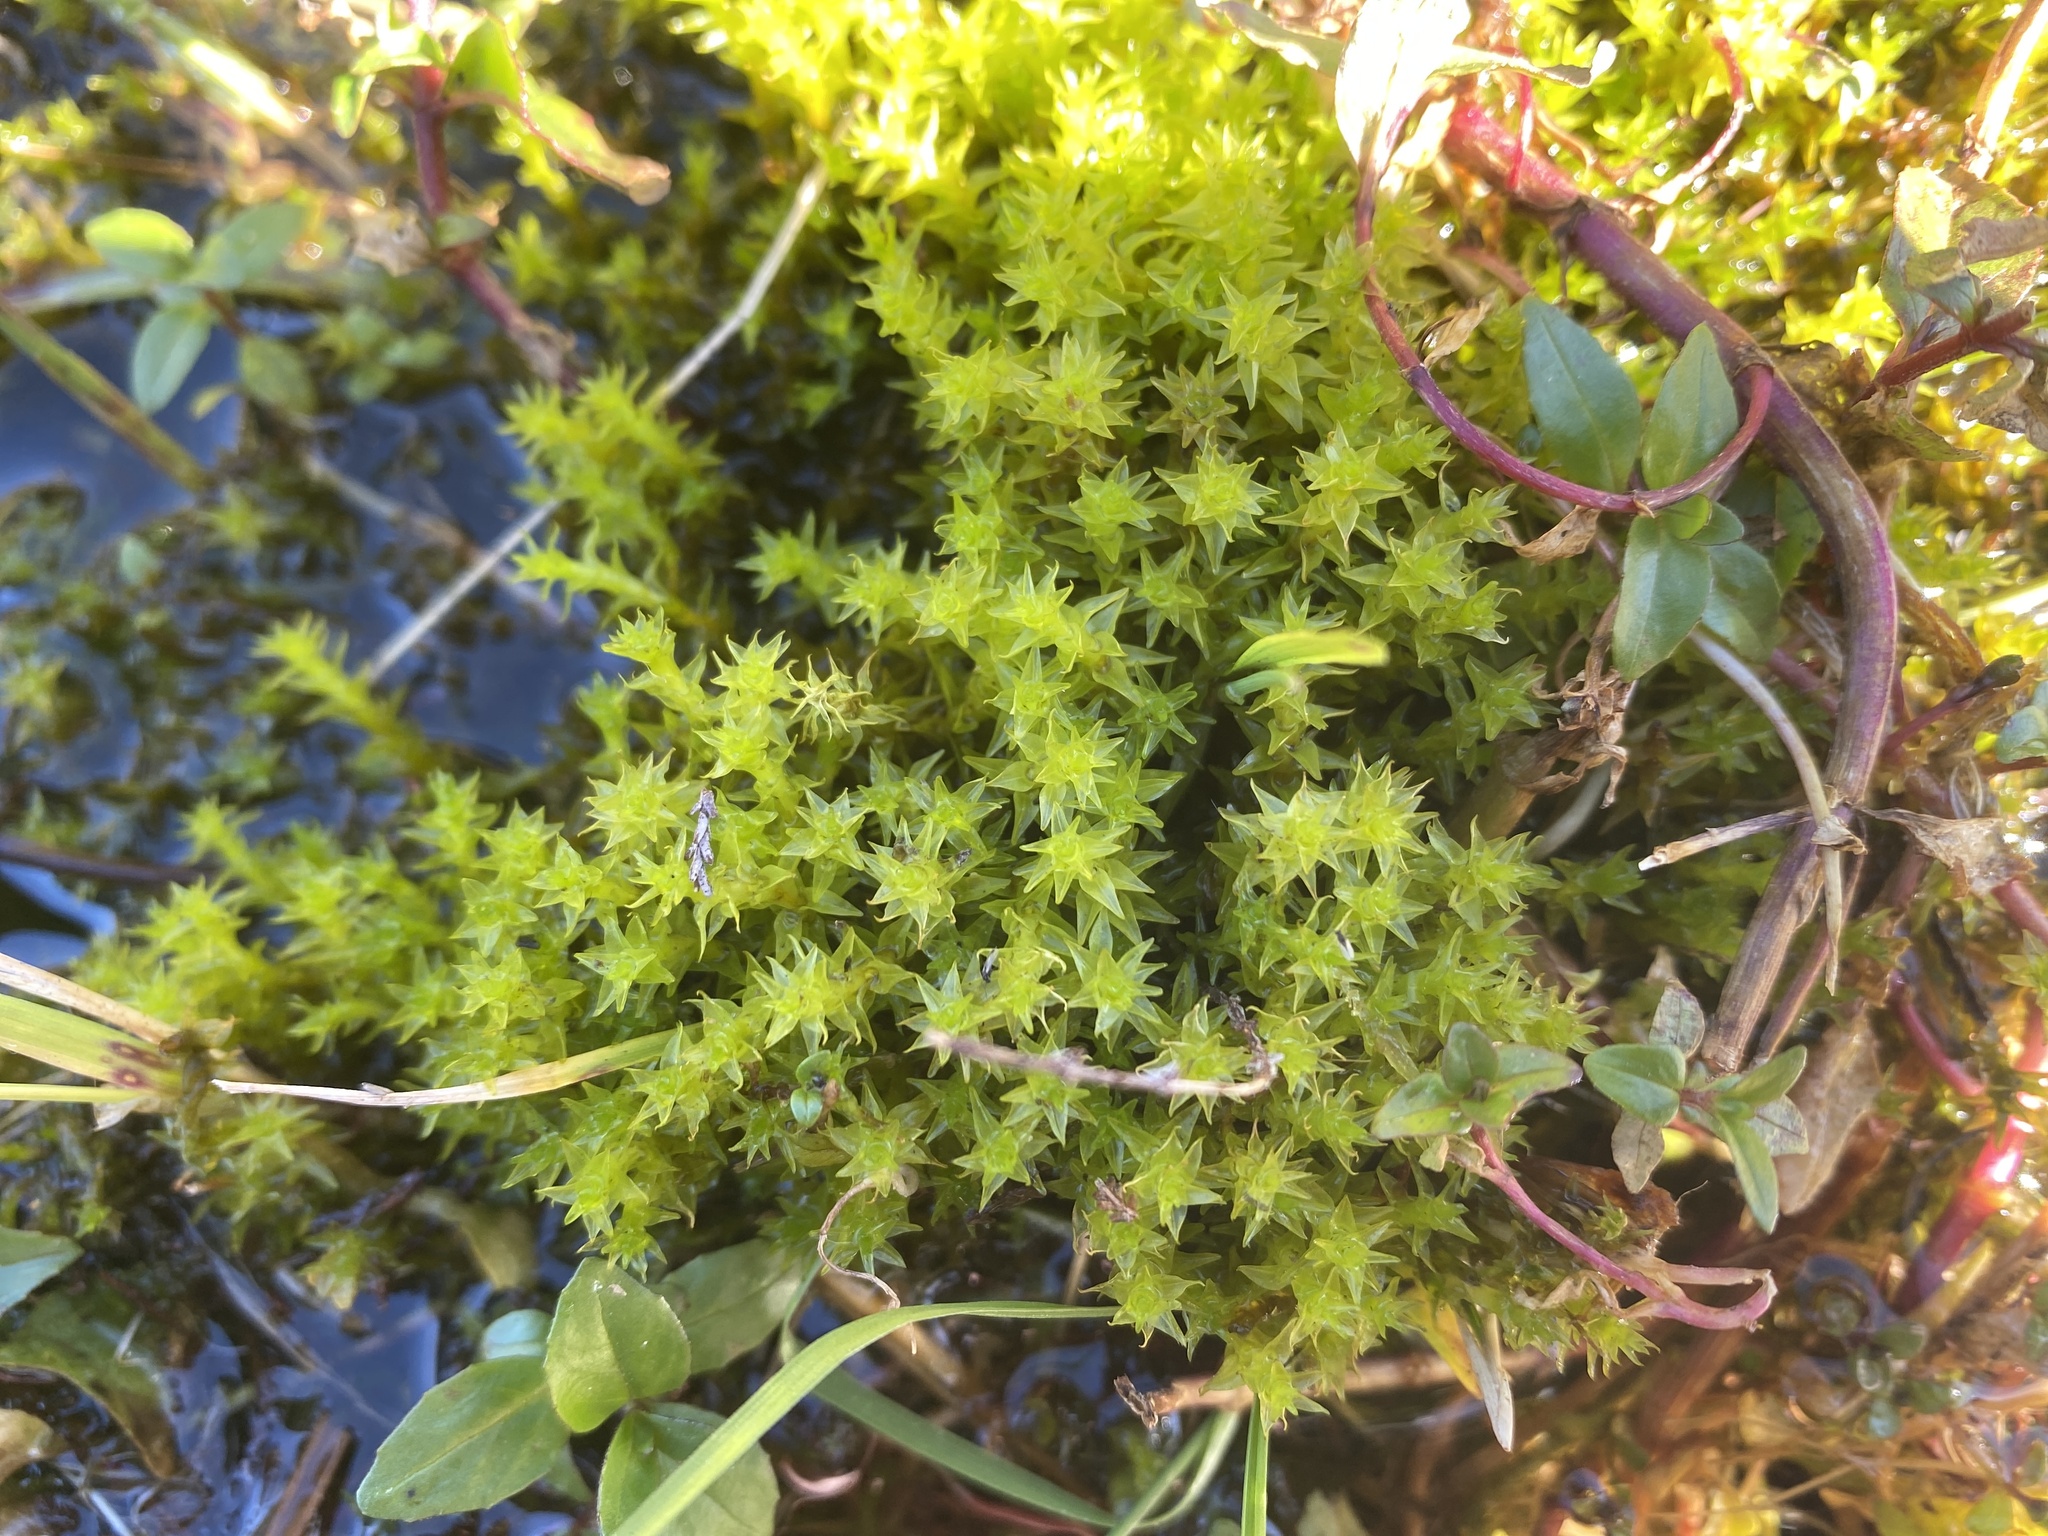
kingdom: Plantae
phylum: Bryophyta
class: Bryopsida
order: Dicranales
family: Aongstroemiaceae
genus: Diobelonella
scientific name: Diobelonella palustris
